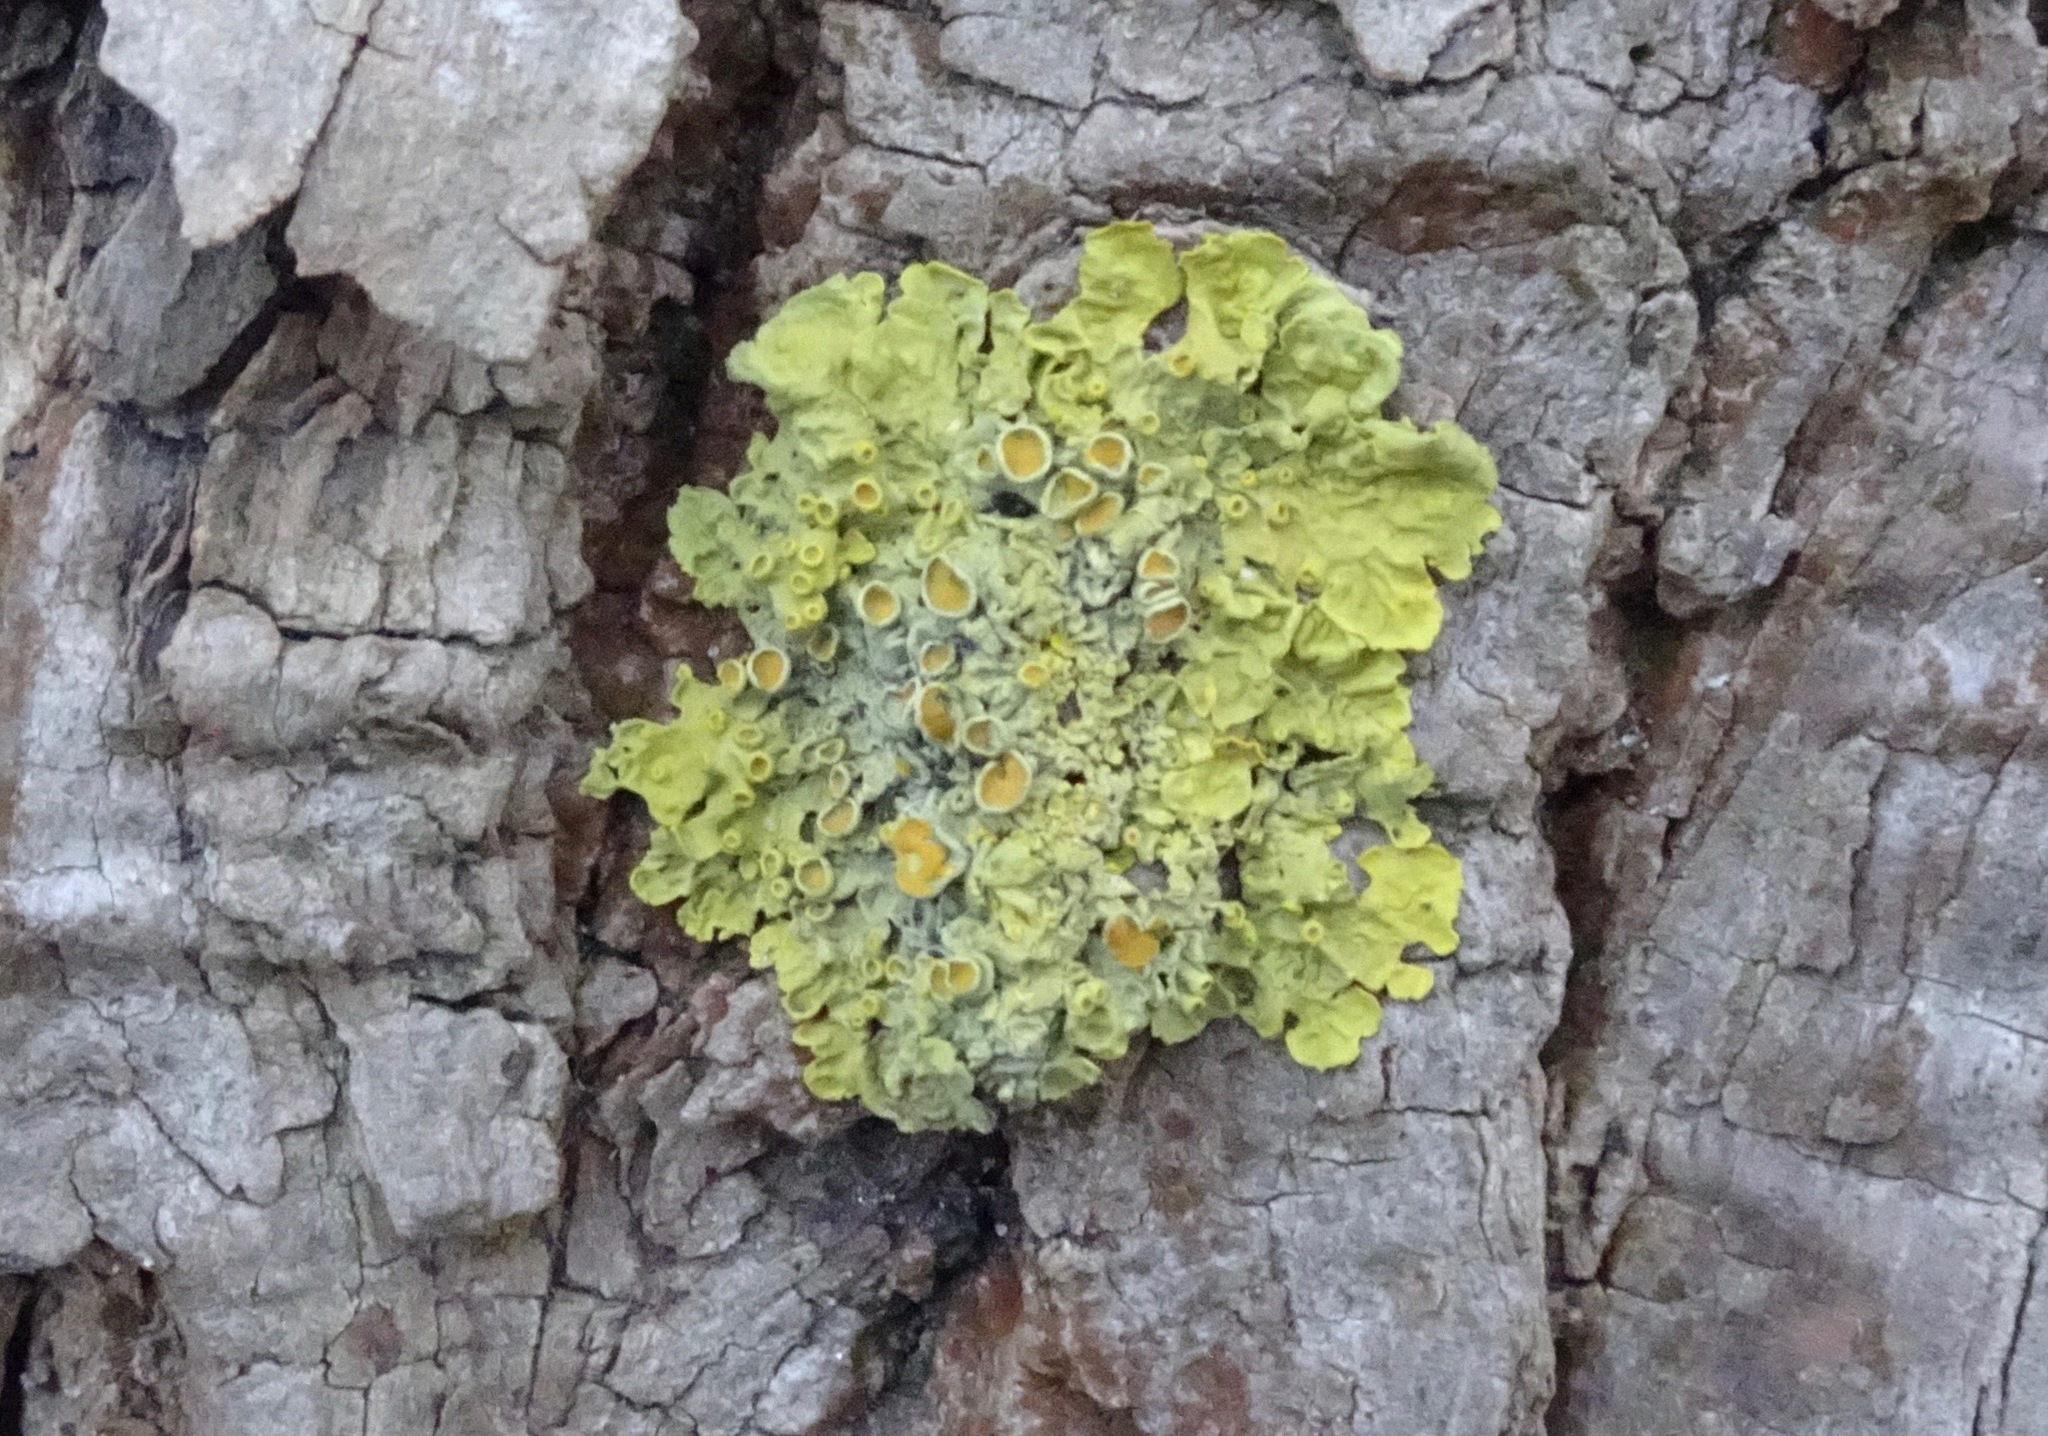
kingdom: Fungi
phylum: Ascomycota
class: Lecanoromycetes
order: Teloschistales
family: Teloschistaceae
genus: Xanthoria
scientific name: Xanthoria parietina
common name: Common orange lichen
